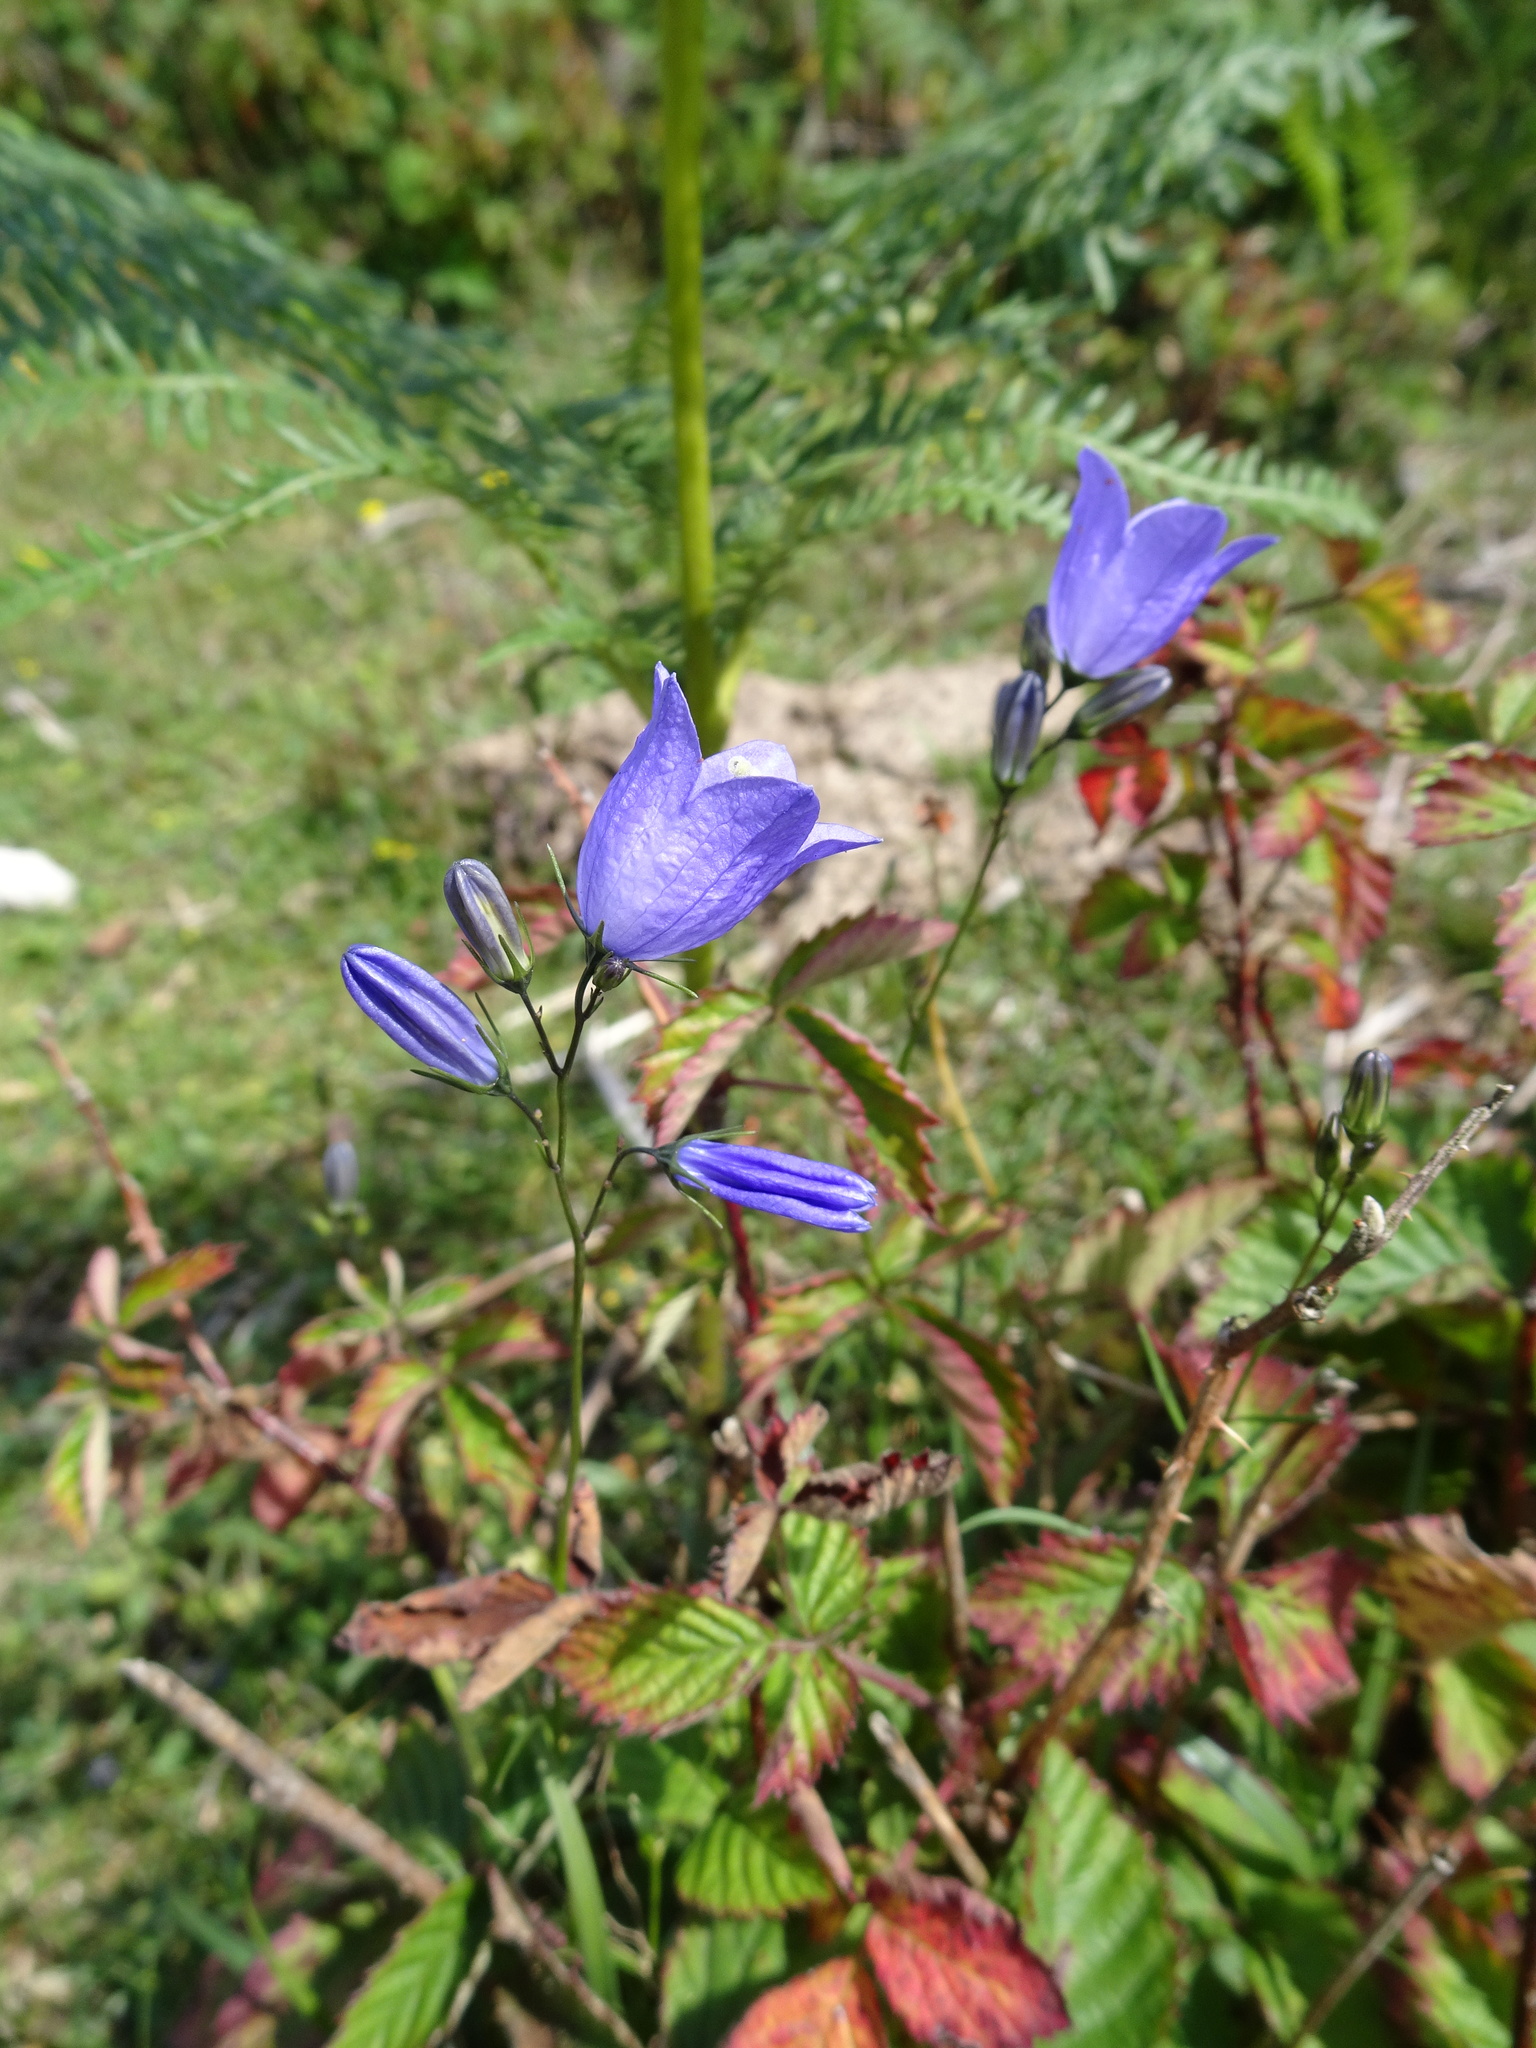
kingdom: Plantae
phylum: Tracheophyta
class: Magnoliopsida
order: Asterales
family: Campanulaceae
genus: Campanula
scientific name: Campanula rotundifolia
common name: Harebell
